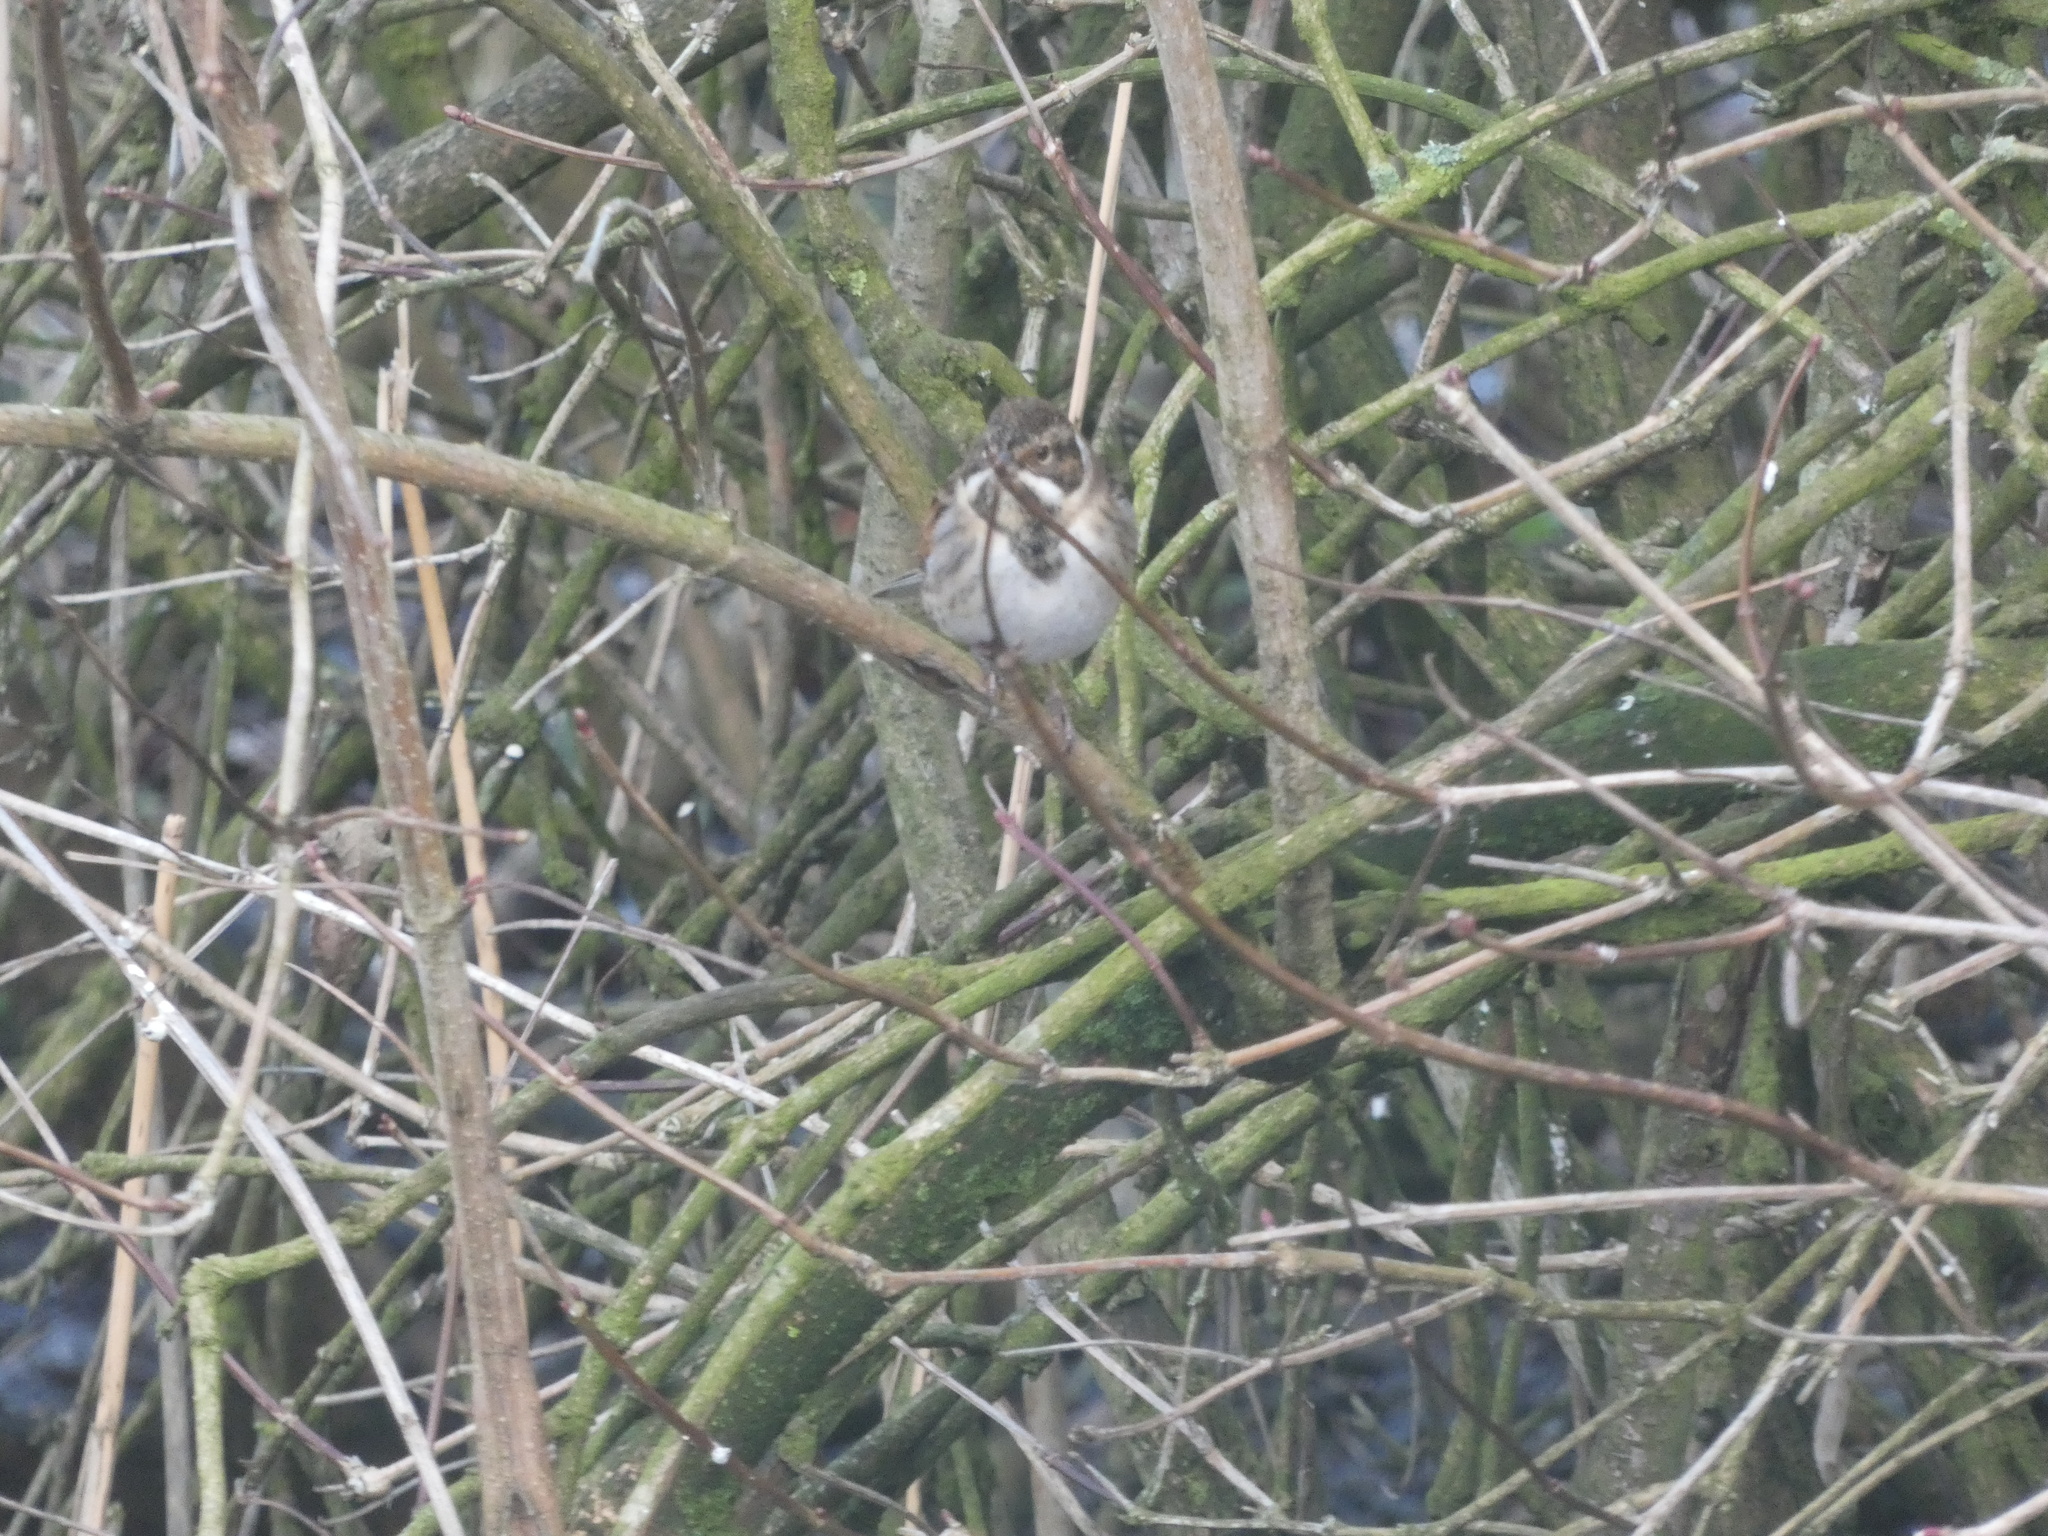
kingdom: Animalia
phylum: Chordata
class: Aves
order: Passeriformes
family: Emberizidae
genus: Emberiza
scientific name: Emberiza schoeniclus
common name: Reed bunting
